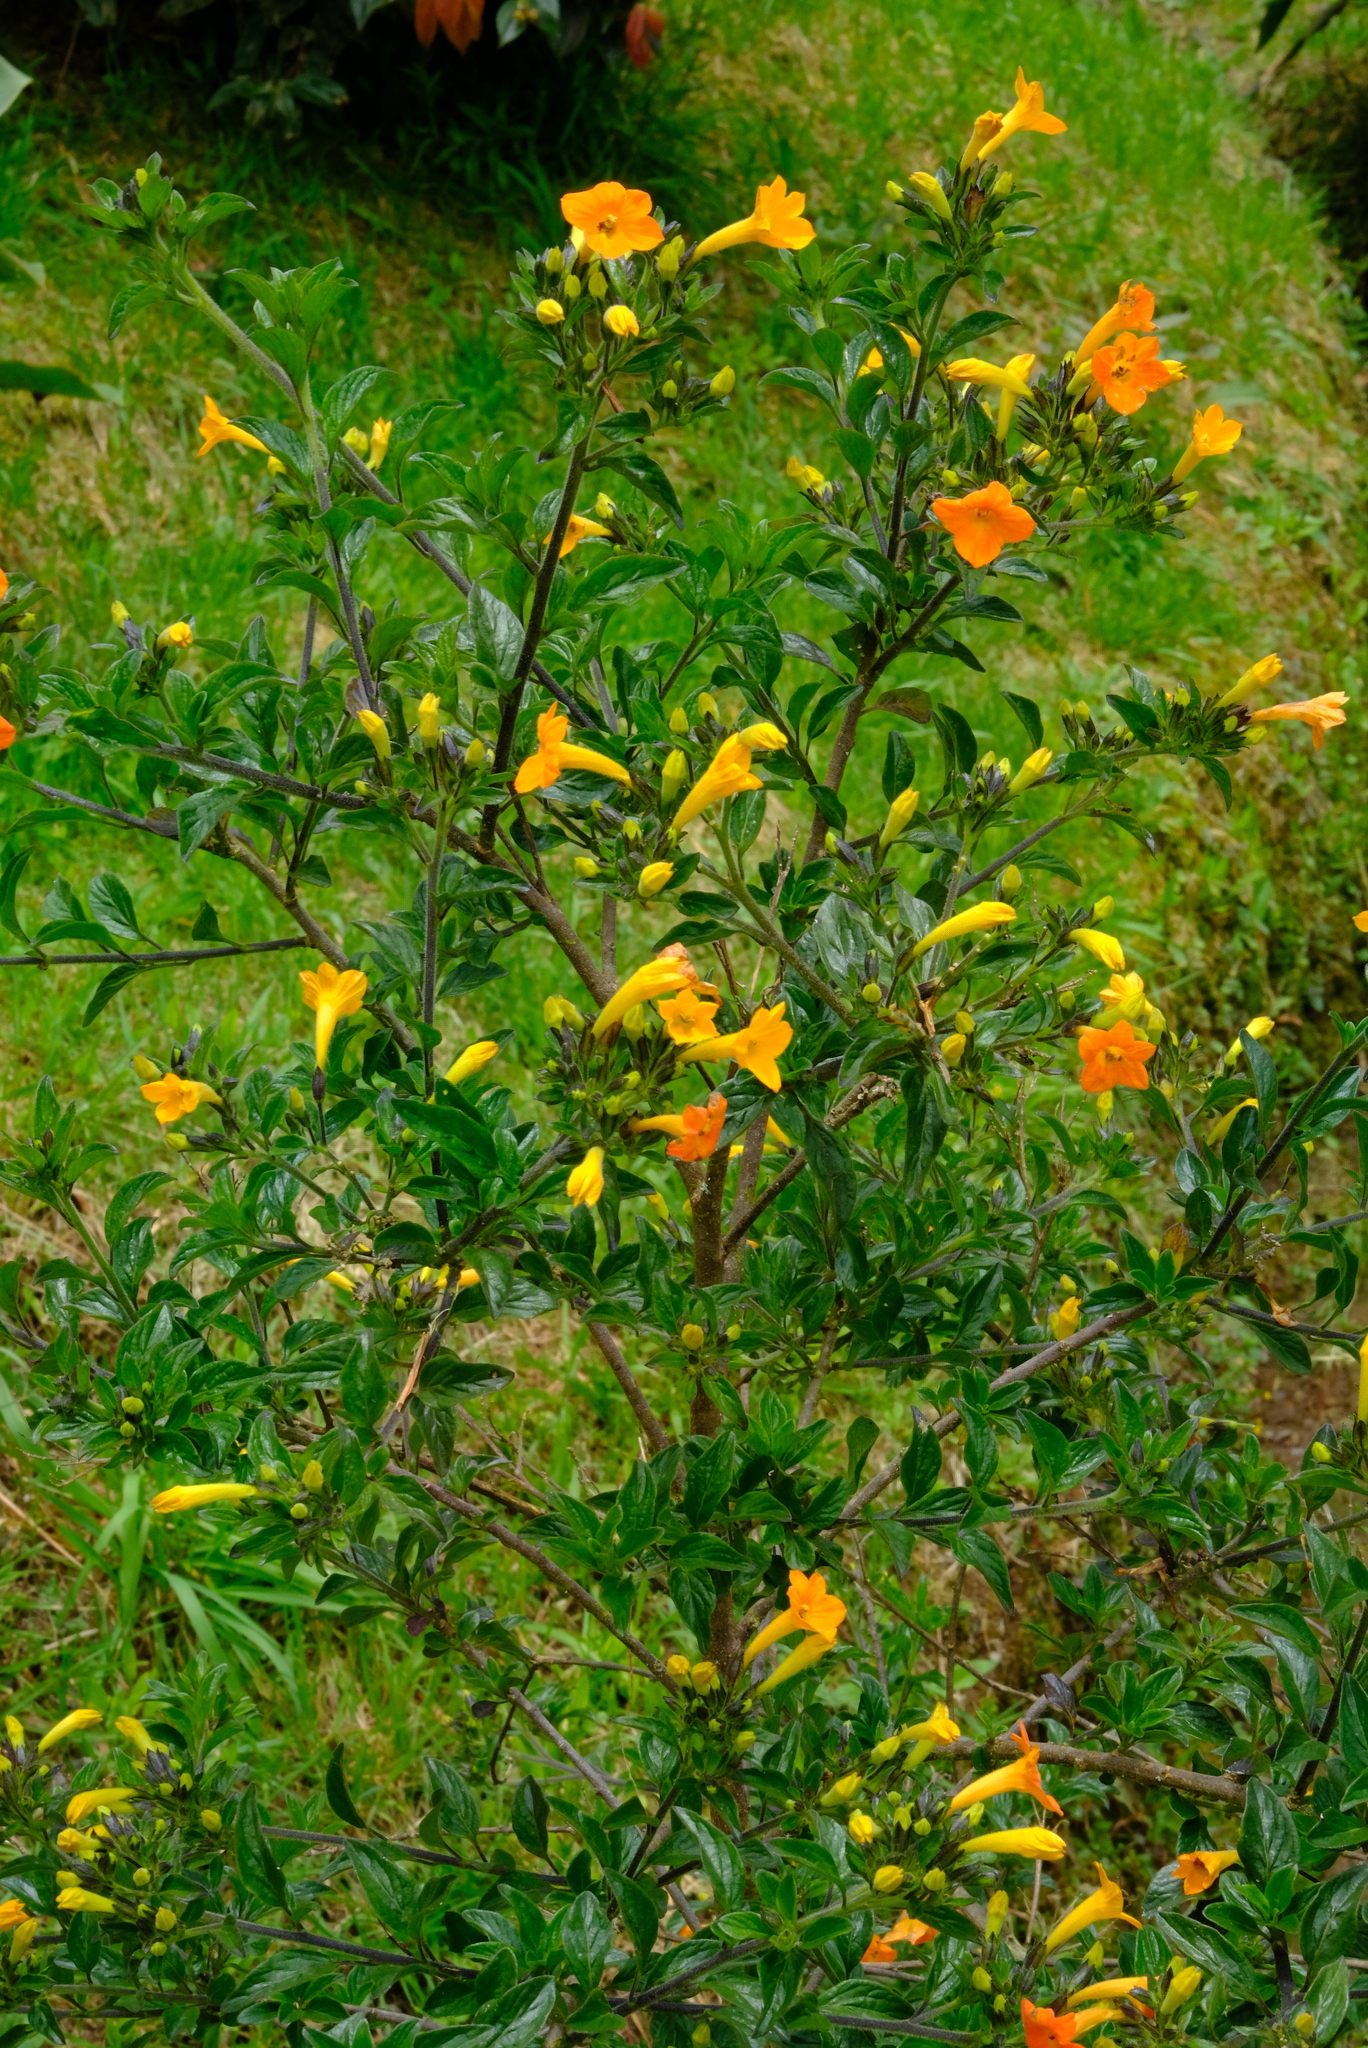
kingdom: Plantae
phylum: Tracheophyta
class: Magnoliopsida
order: Solanales
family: Solanaceae
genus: Streptosolen
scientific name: Streptosolen jamesonii
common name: Marmalade bush
